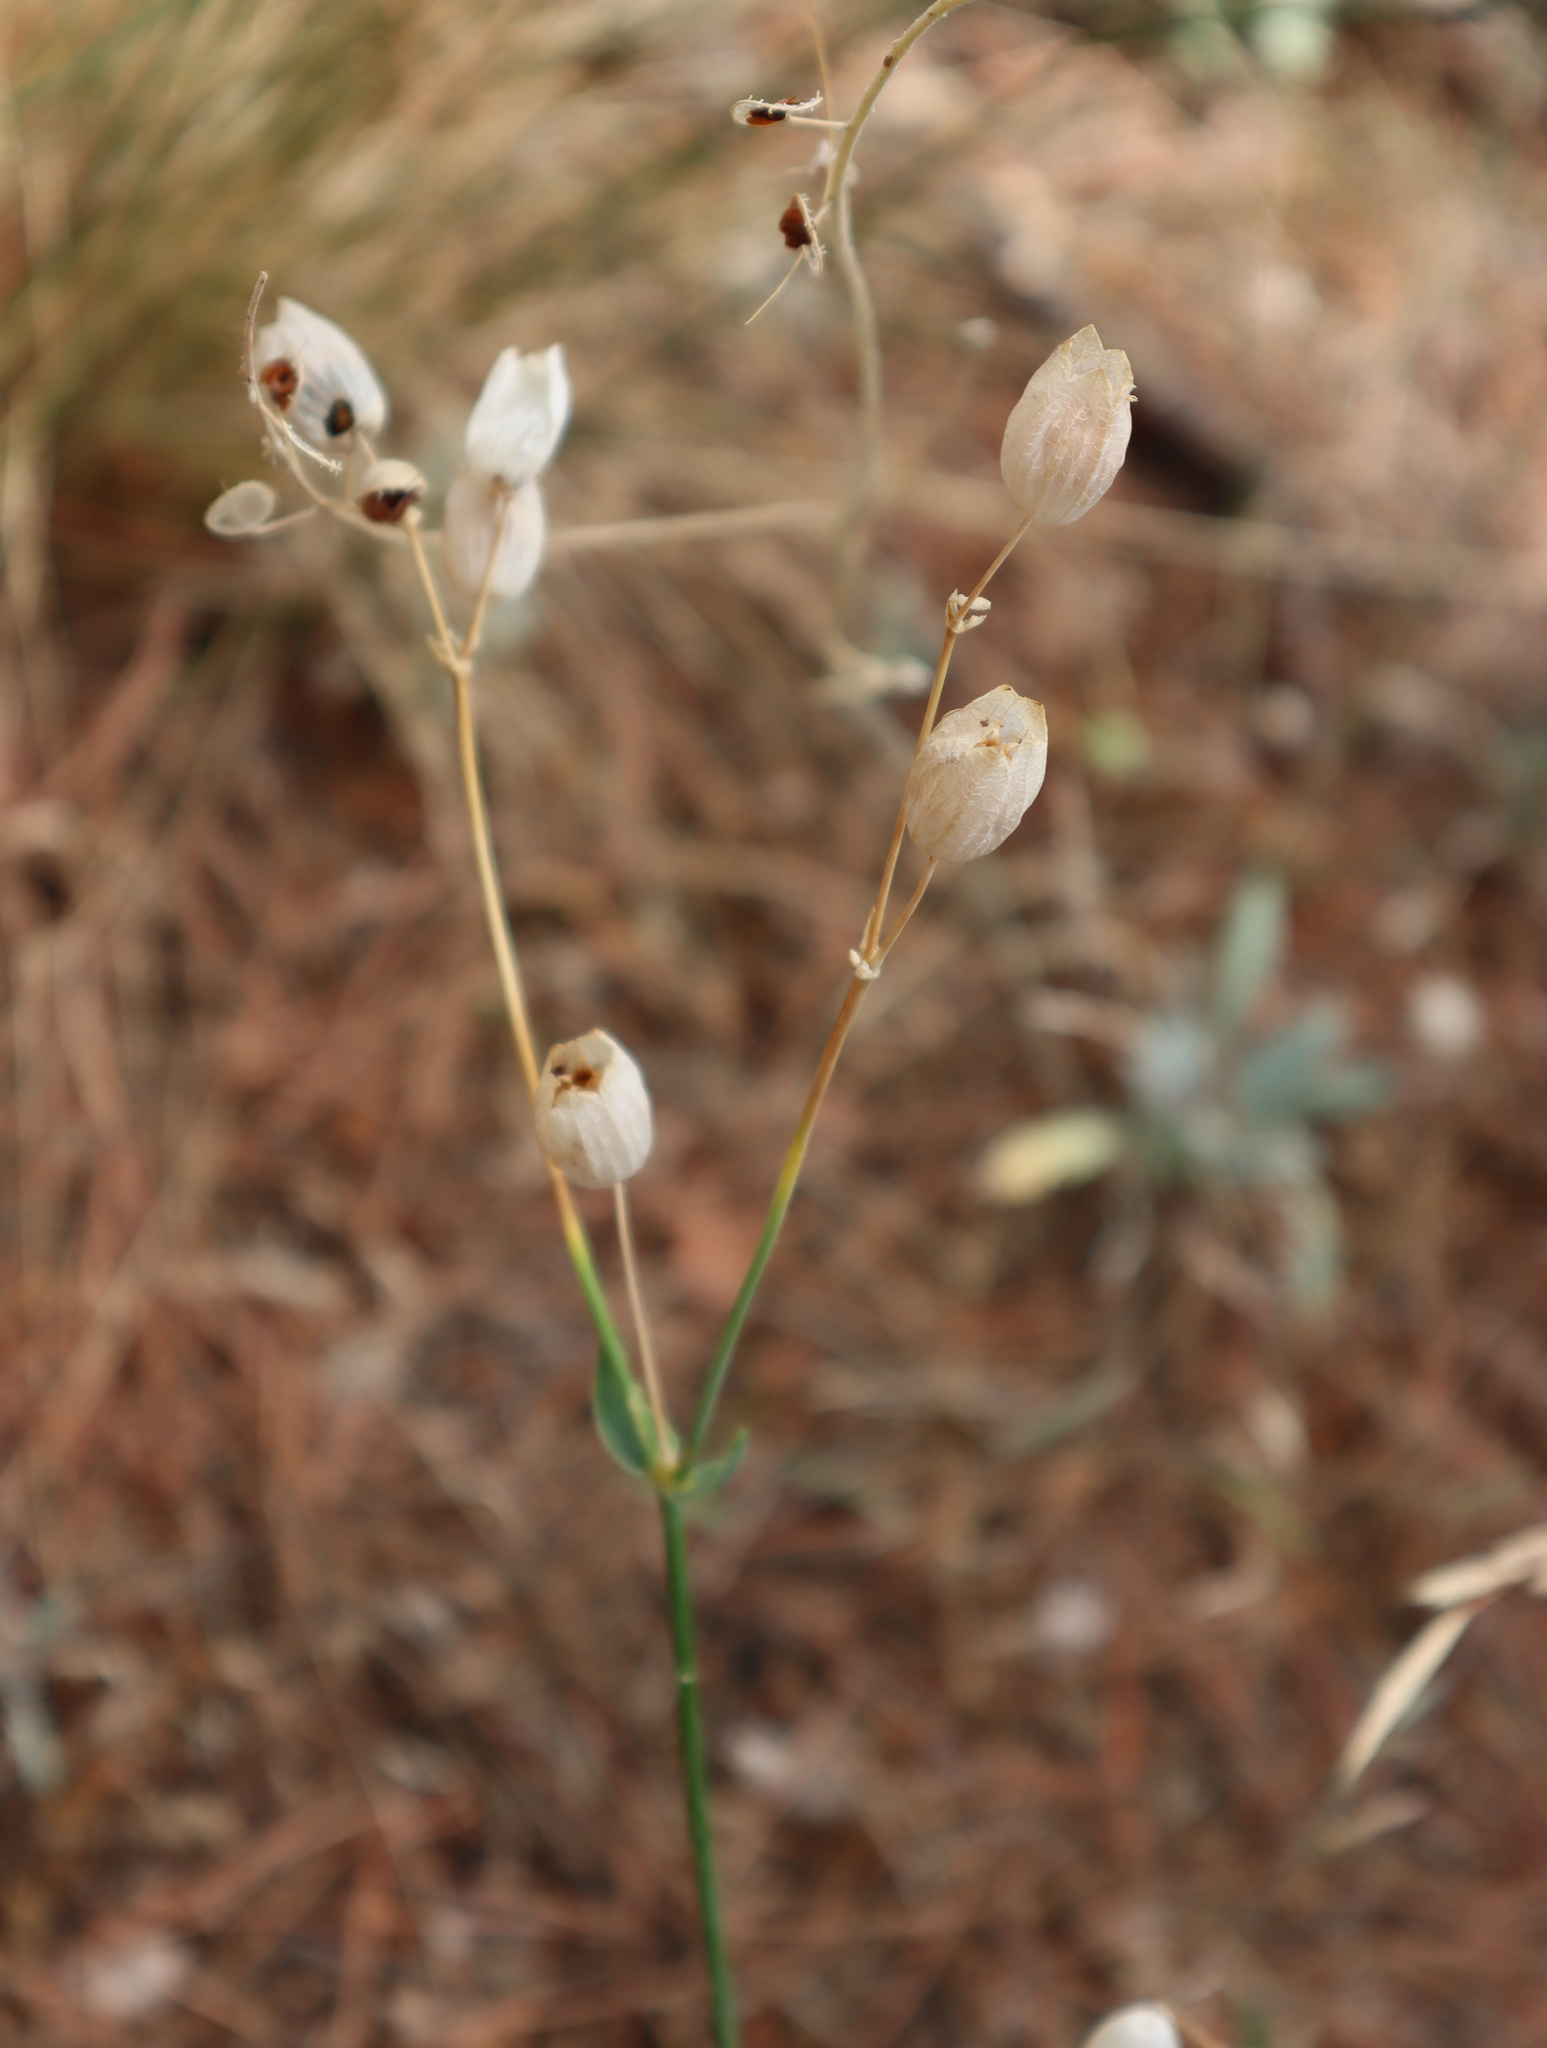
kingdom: Plantae
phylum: Tracheophyta
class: Magnoliopsida
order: Caryophyllales
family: Caryophyllaceae
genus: Silene
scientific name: Silene vulgaris
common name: Bladder campion
